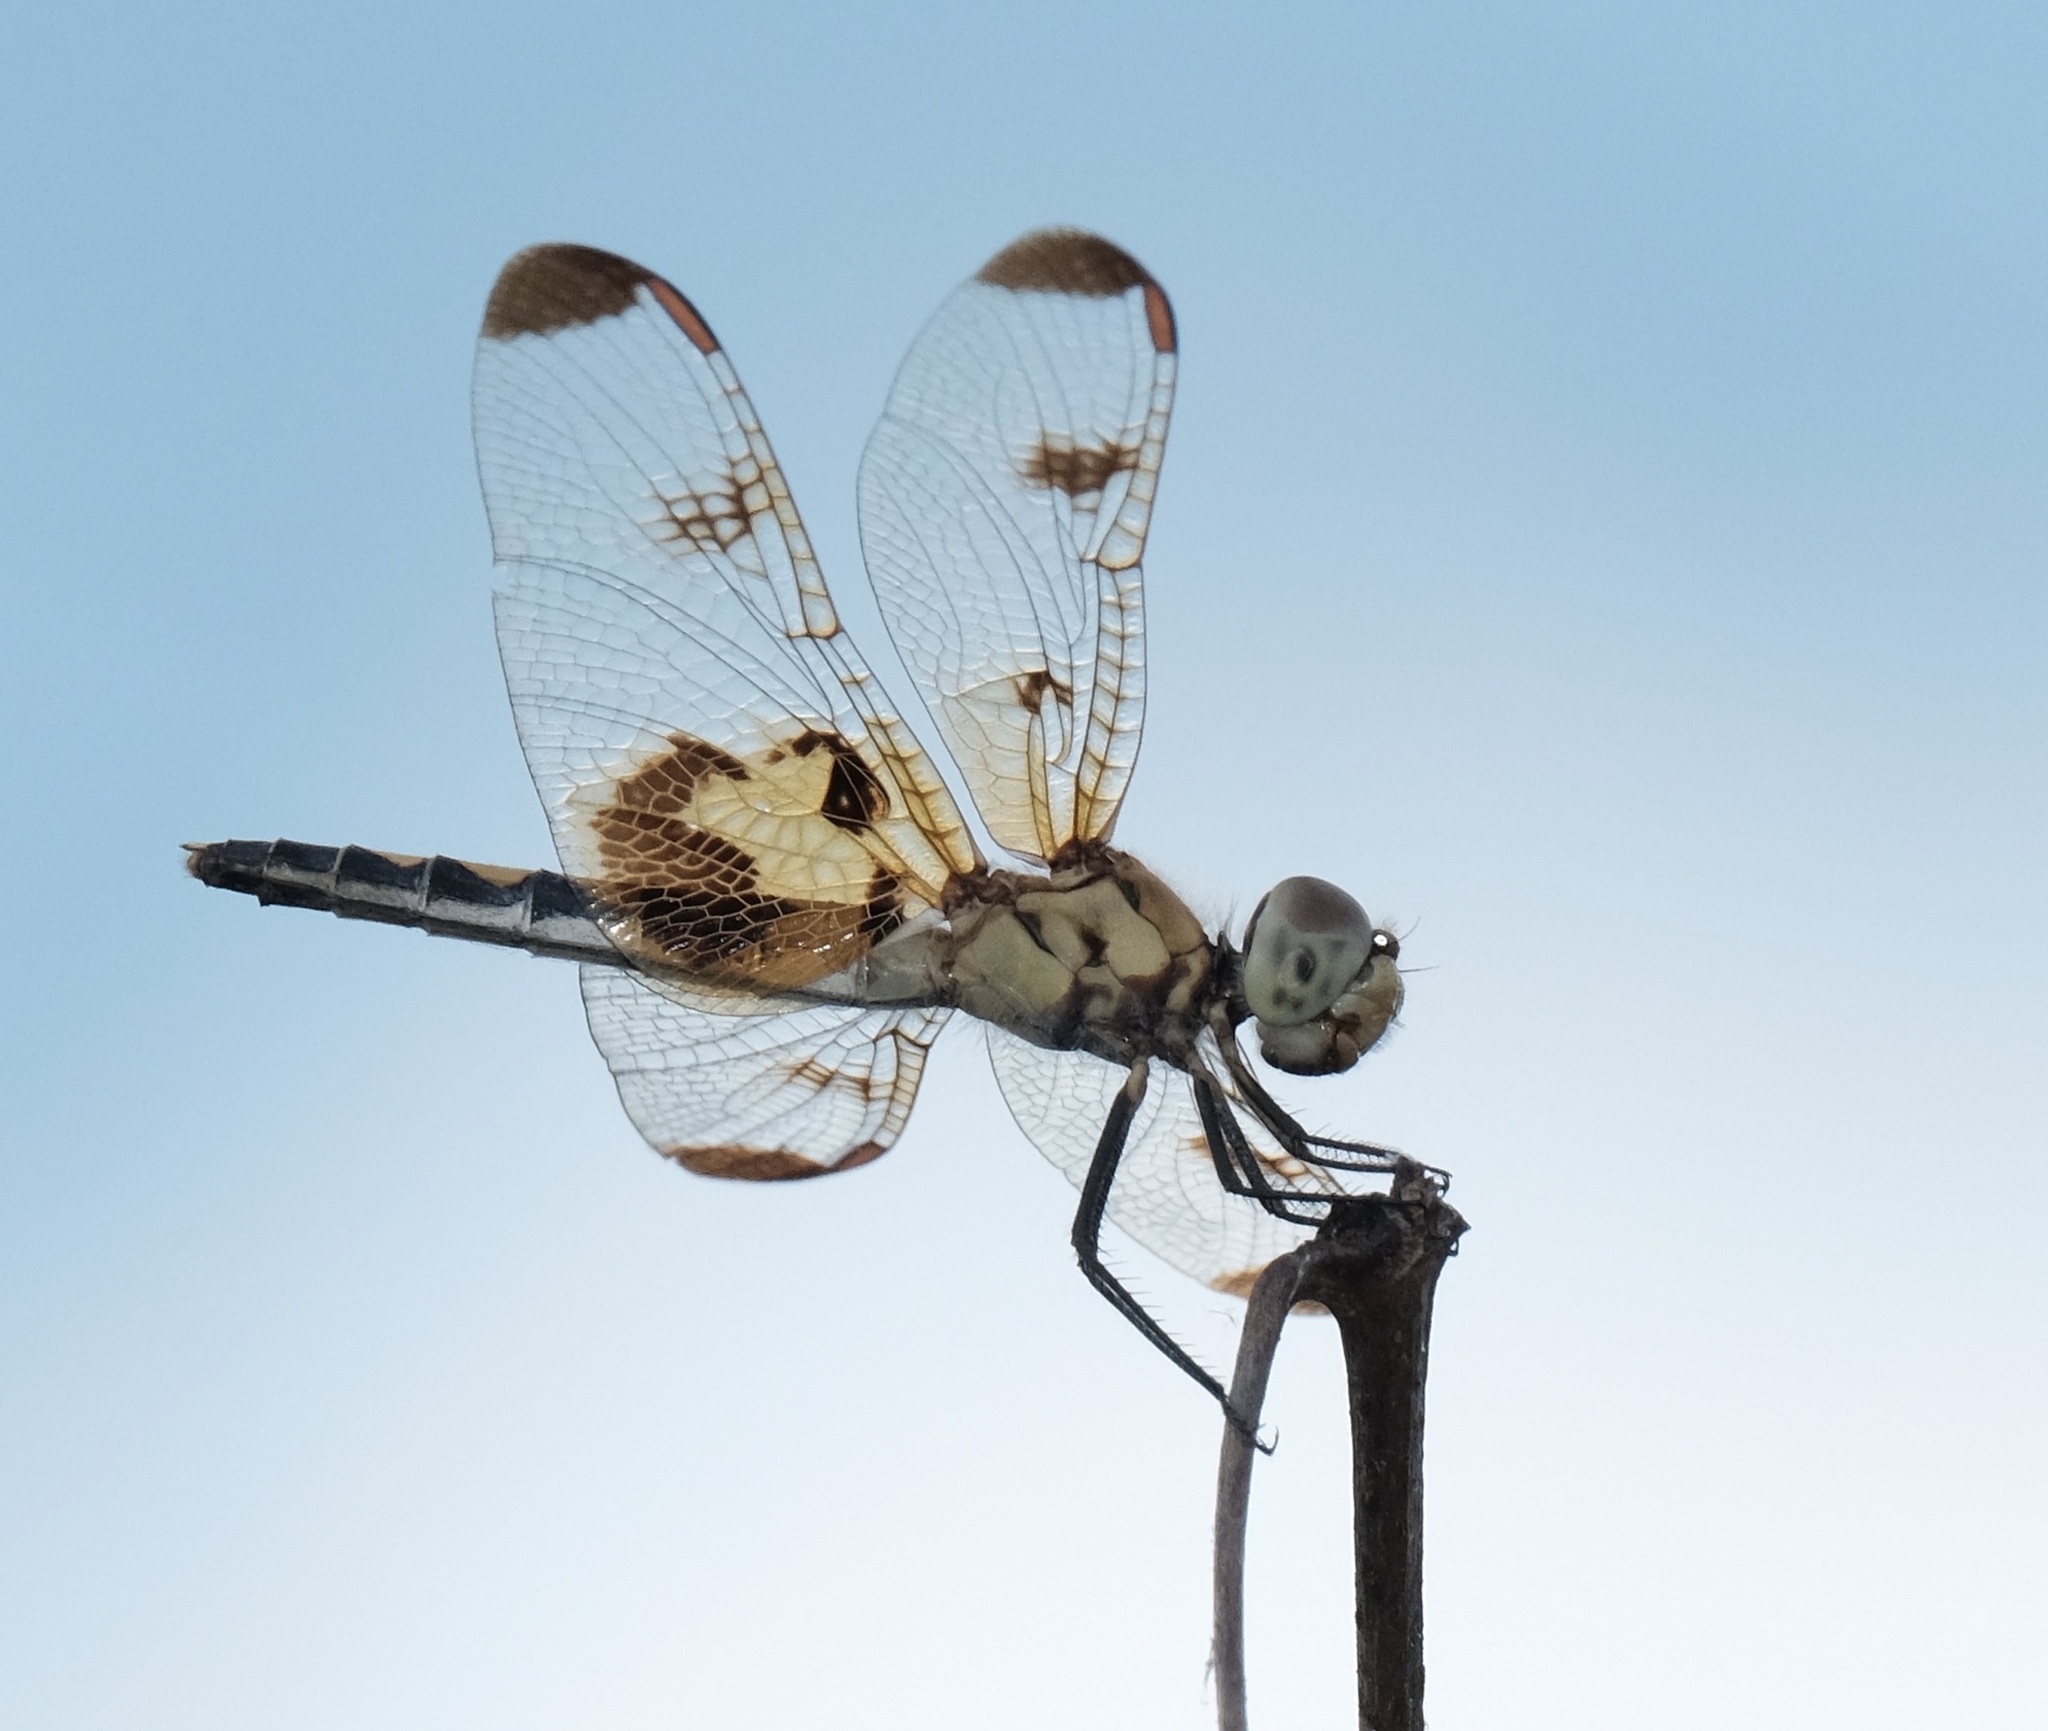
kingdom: Animalia
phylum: Arthropoda
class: Insecta
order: Odonata
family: Libellulidae
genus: Celithemis
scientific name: Celithemis elisa
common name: Calico pennant
